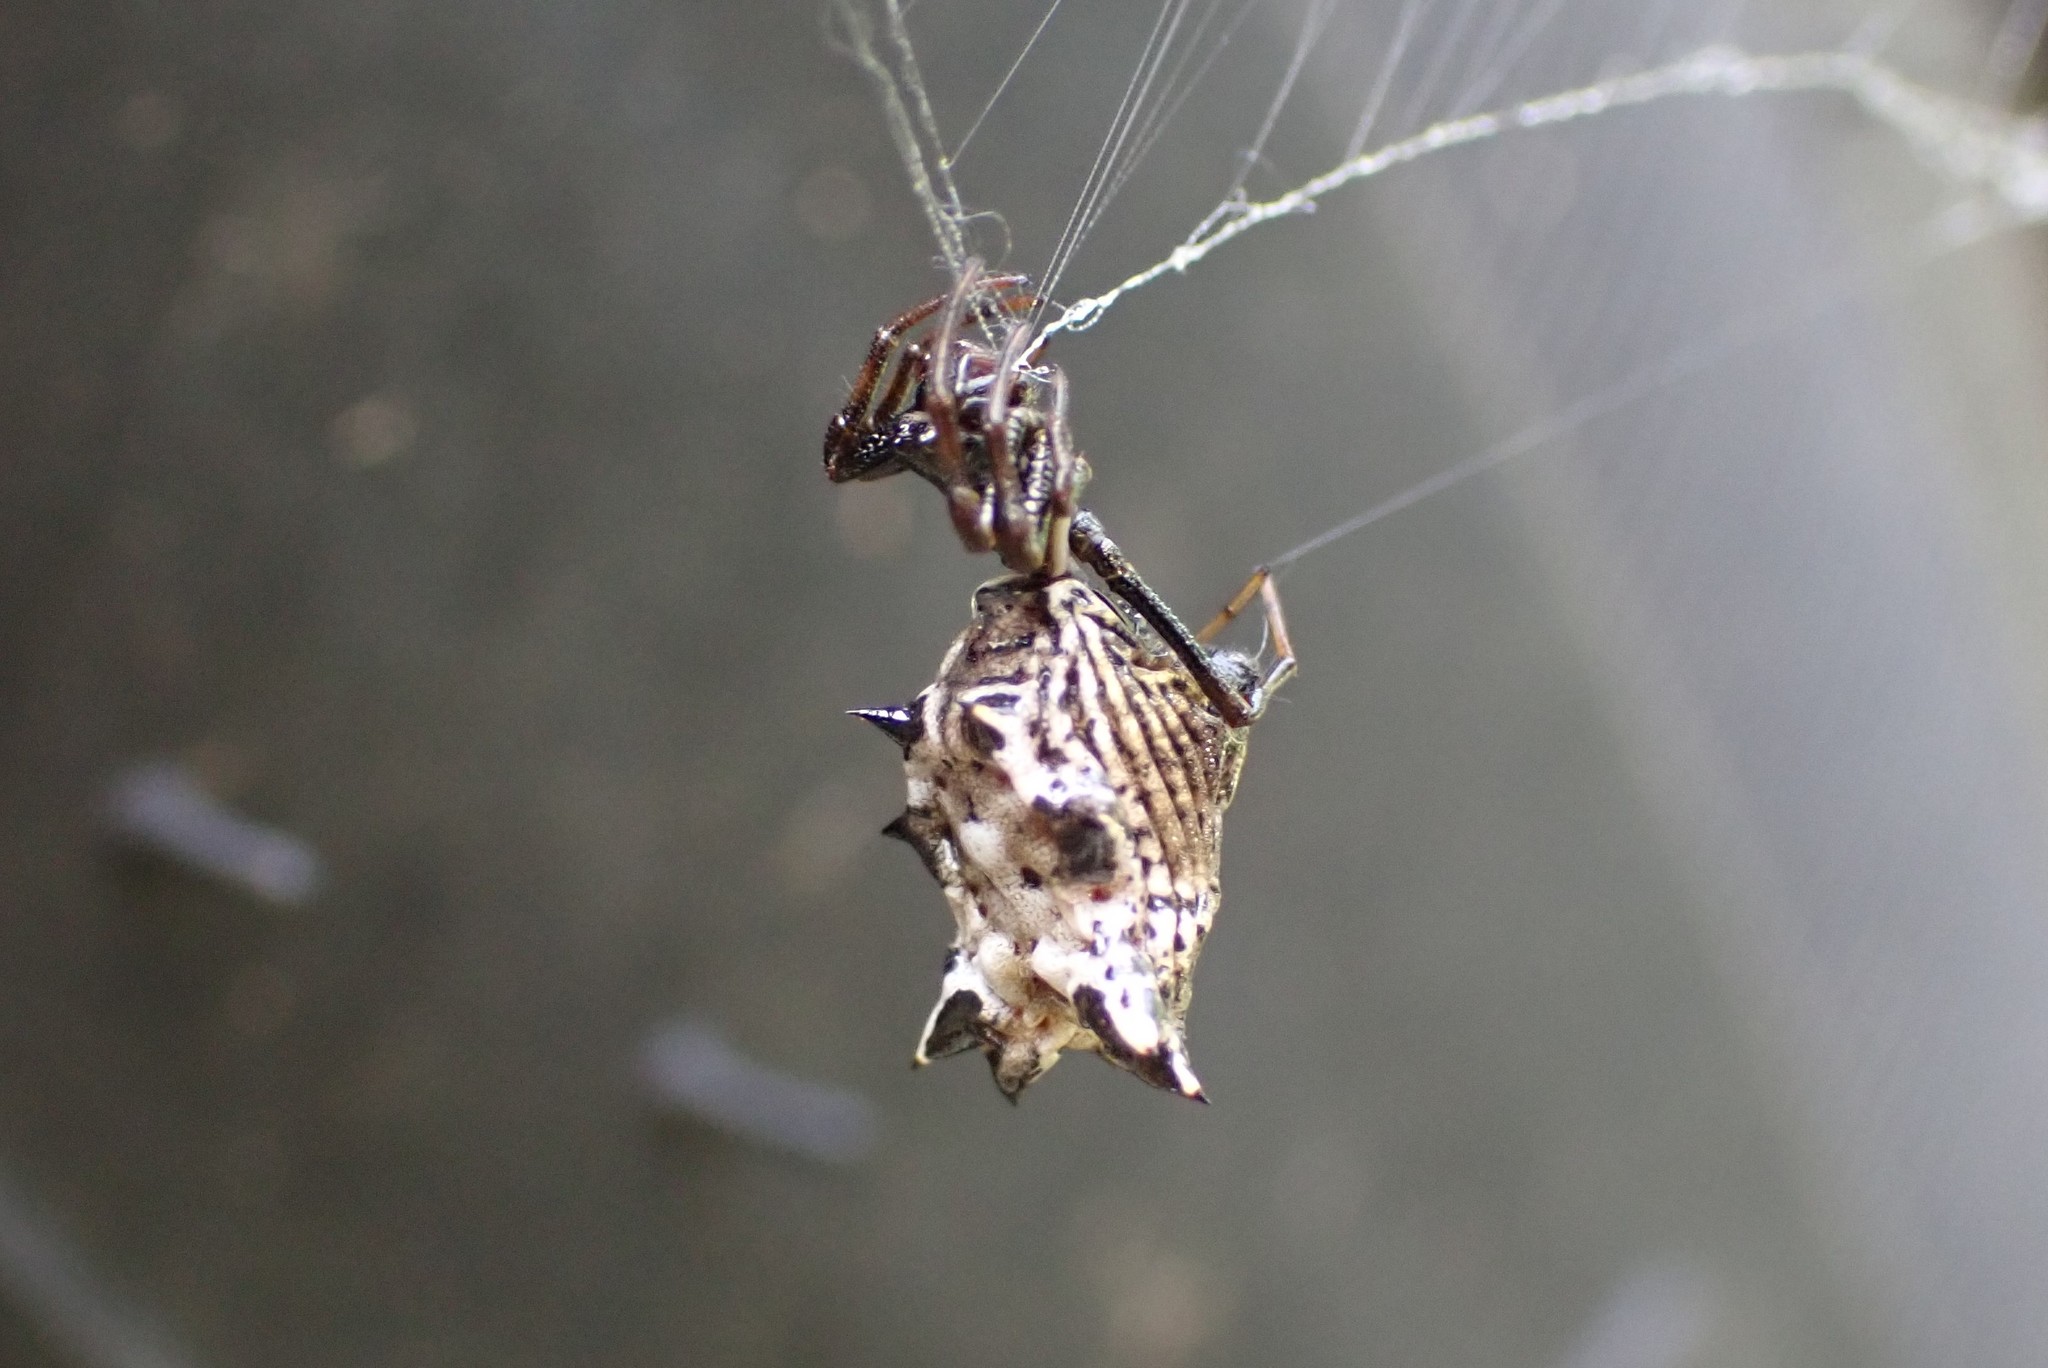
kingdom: Animalia
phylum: Arthropoda
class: Arachnida
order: Araneae
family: Araneidae
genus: Micrathena
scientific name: Micrathena gracilis
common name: Orb weavers
